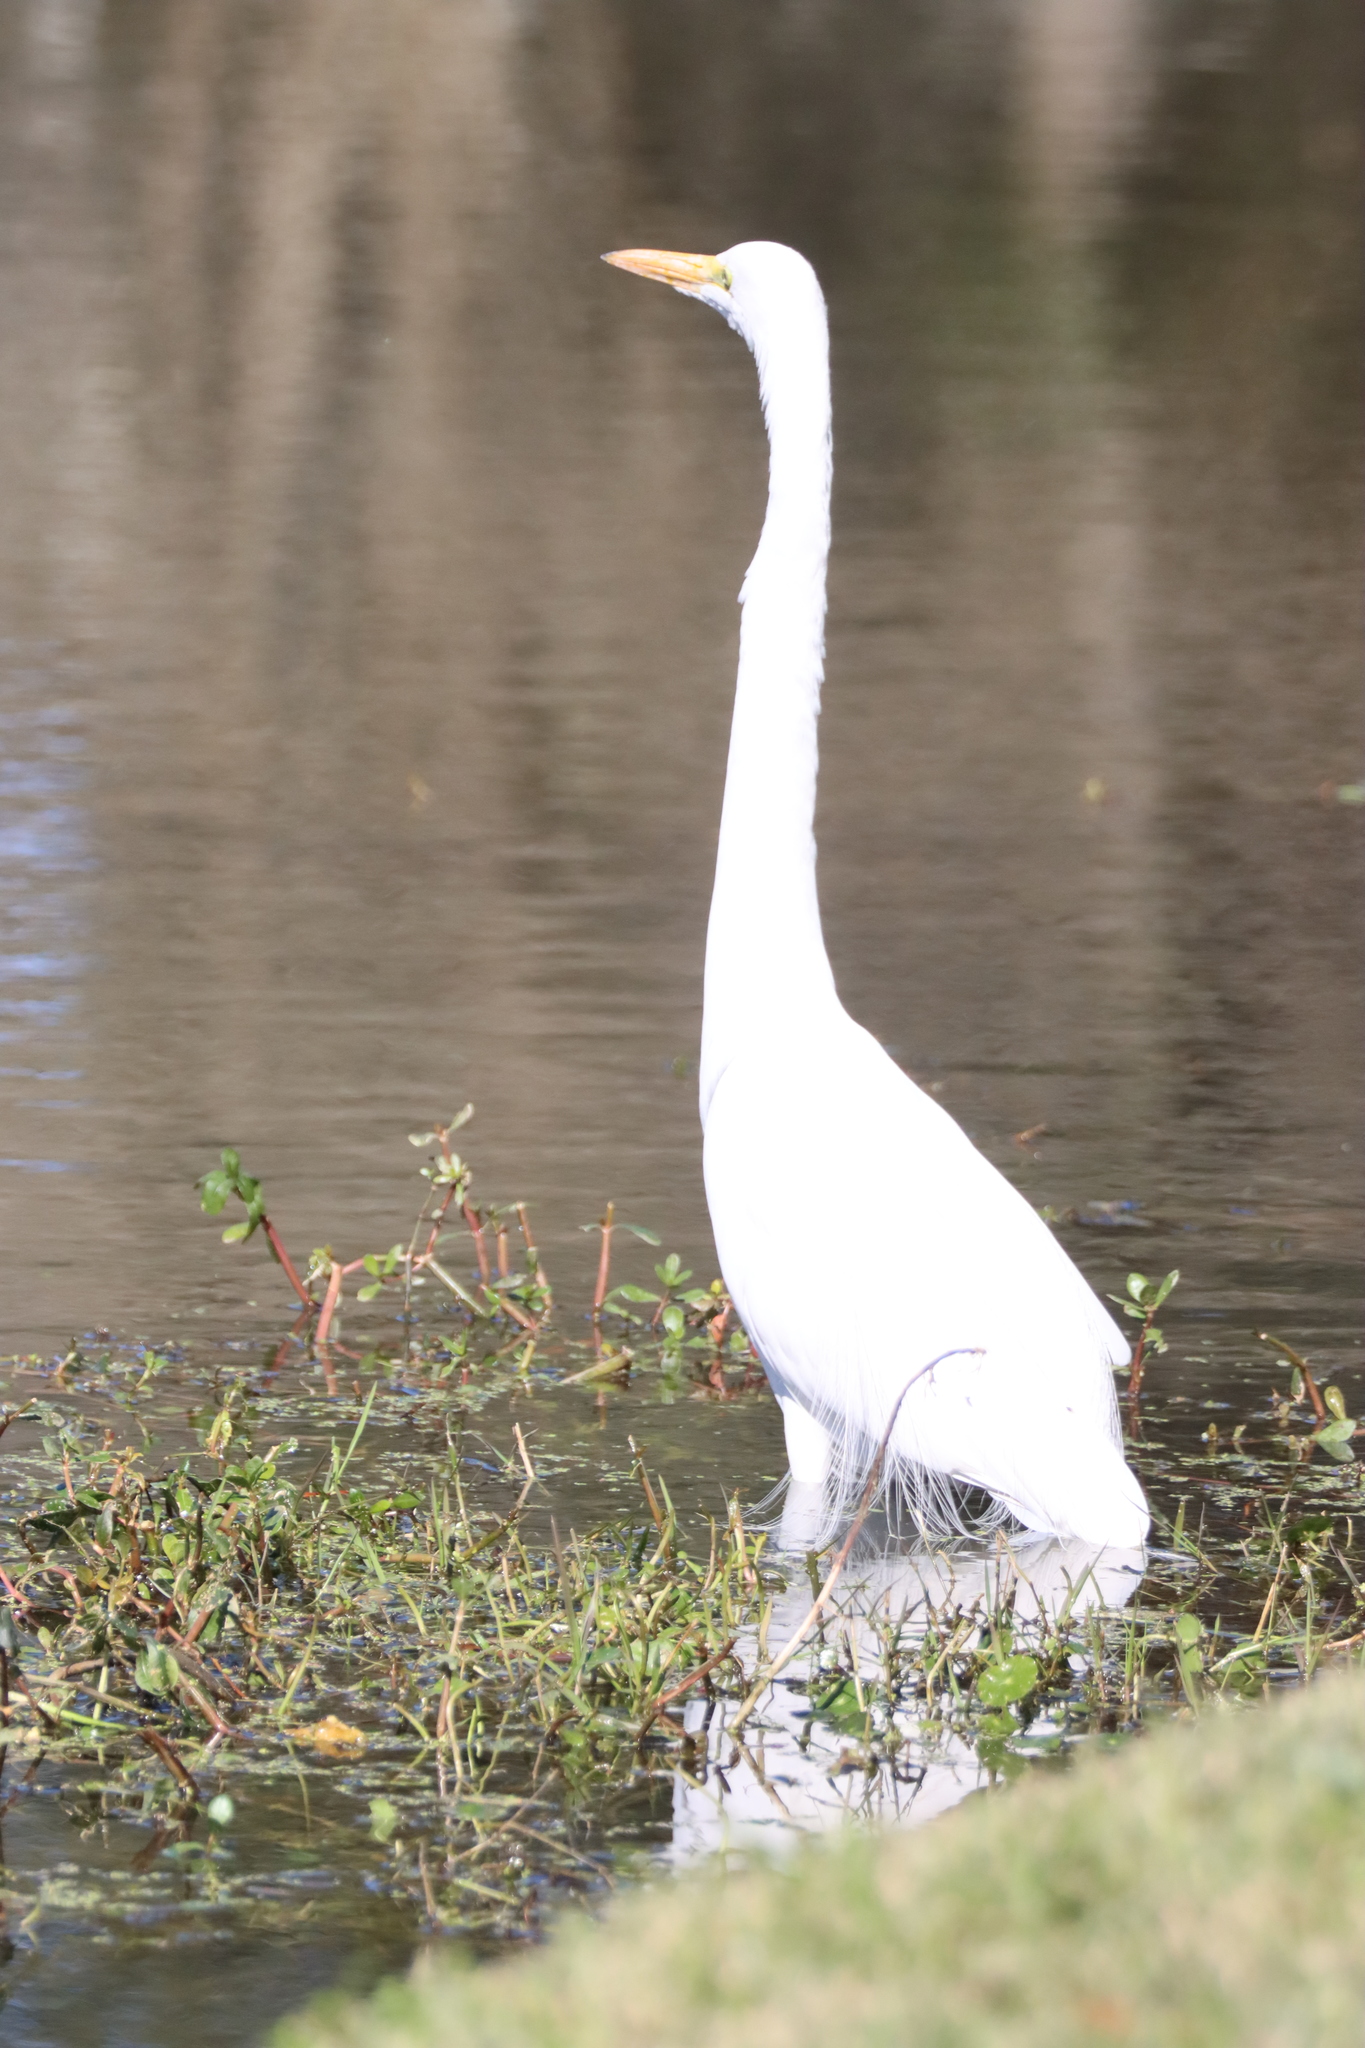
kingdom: Animalia
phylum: Chordata
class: Aves
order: Pelecaniformes
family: Ardeidae
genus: Ardea
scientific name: Ardea alba
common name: Great egret
